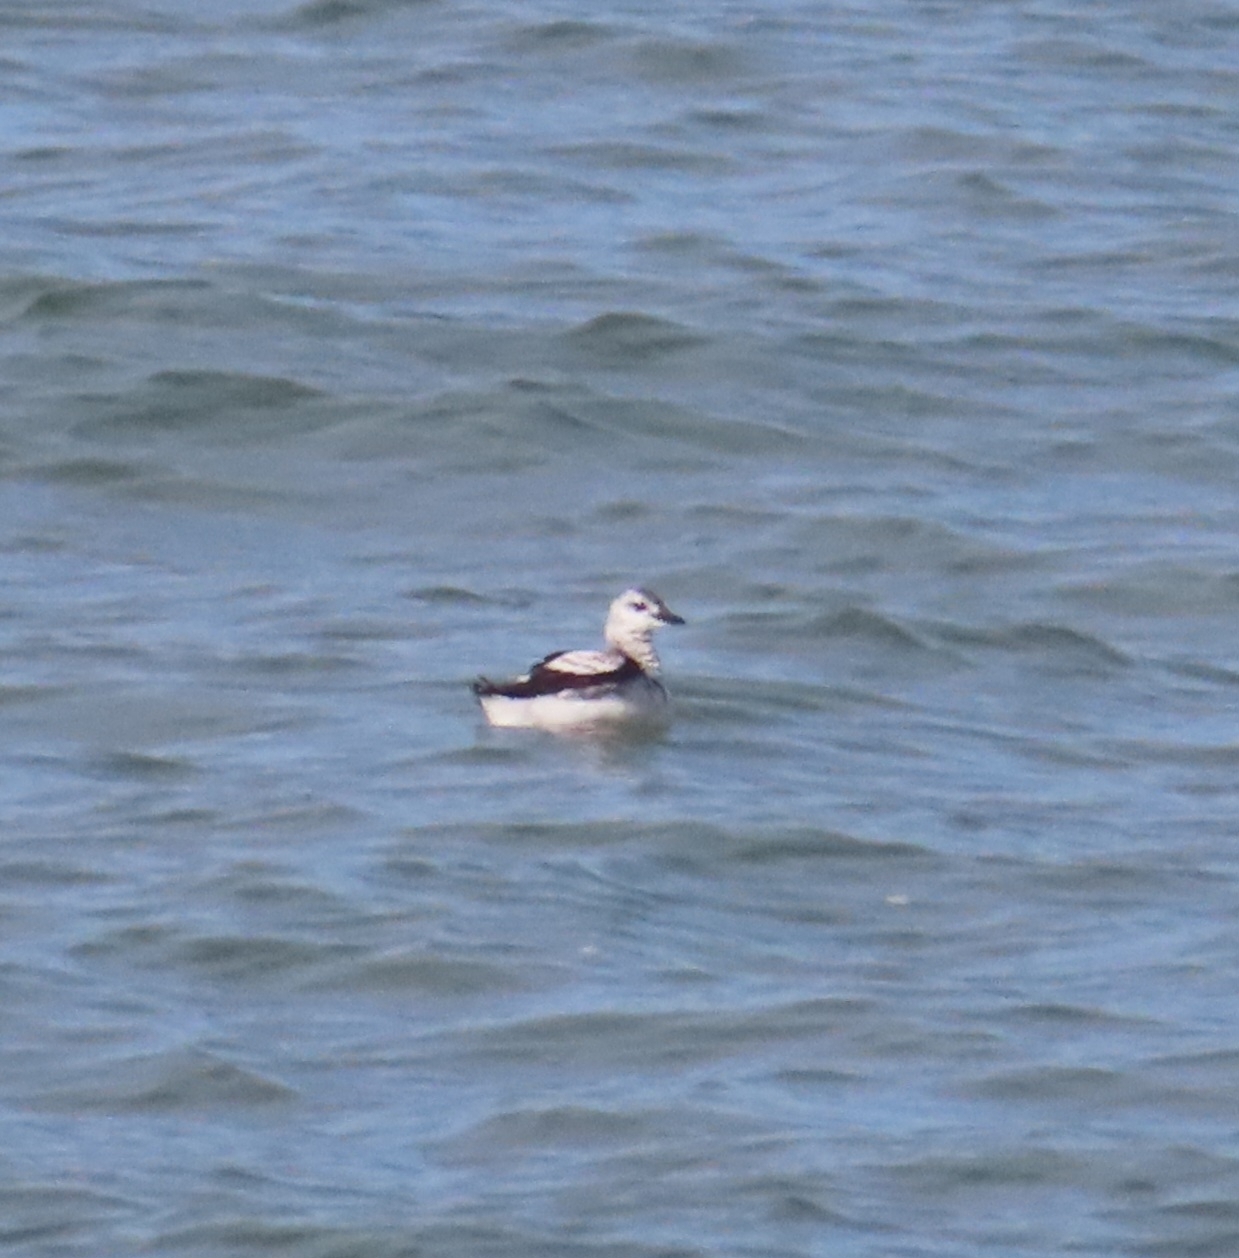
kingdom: Animalia
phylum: Chordata
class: Aves
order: Charadriiformes
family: Alcidae
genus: Cepphus
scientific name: Cepphus grylle
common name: Black guillemot
